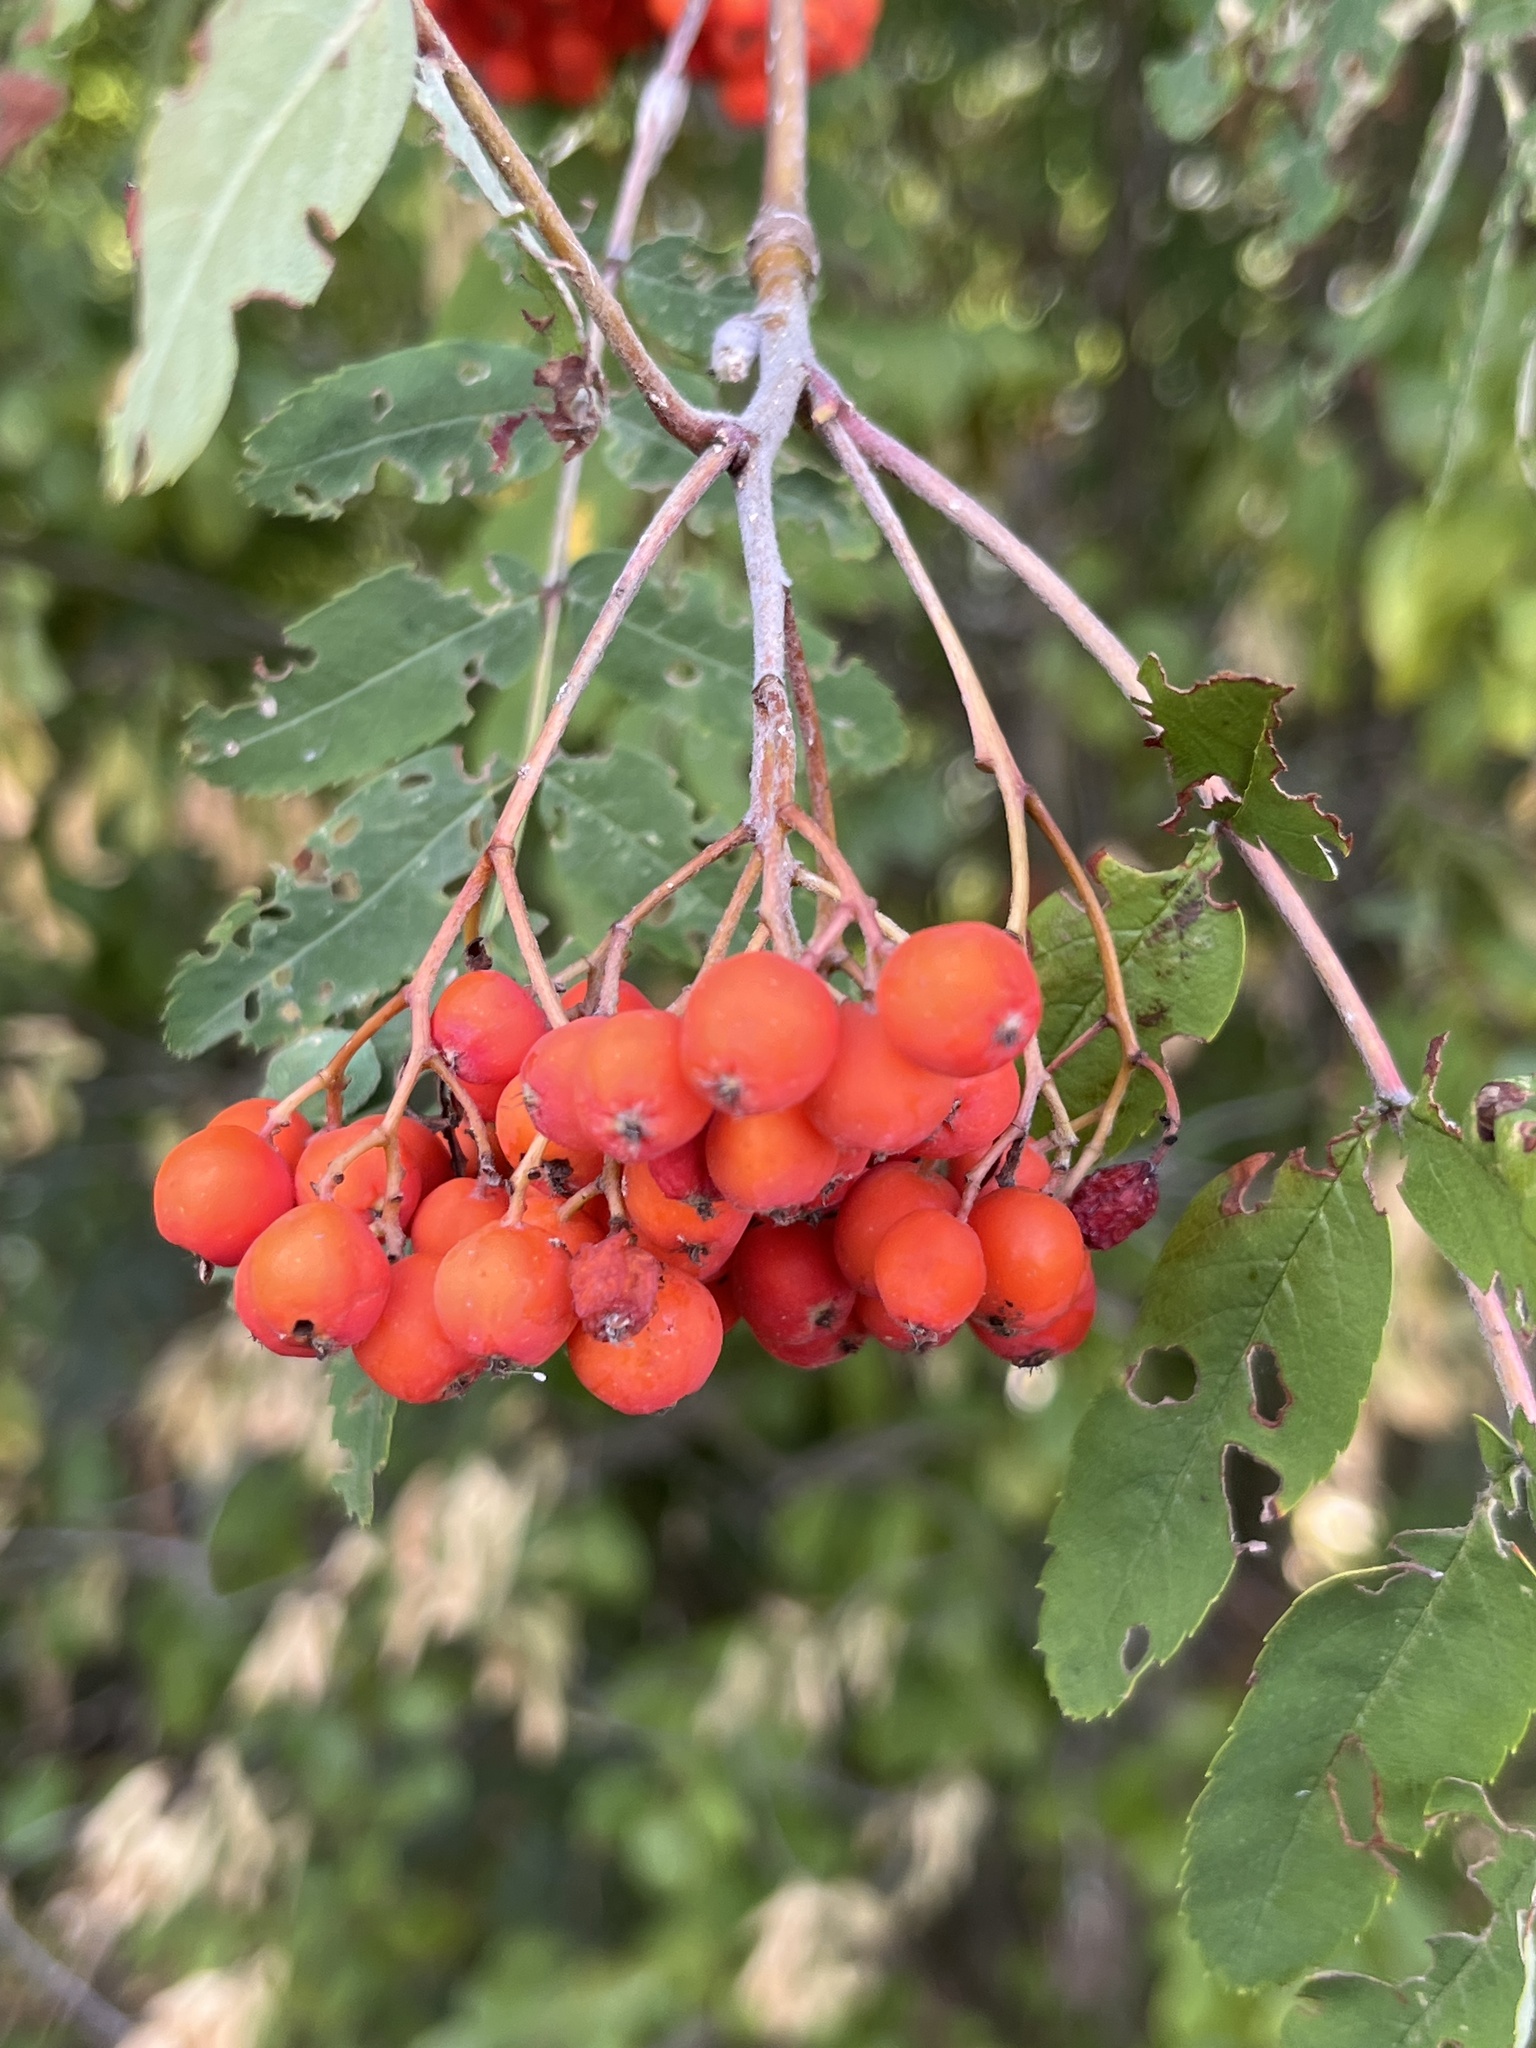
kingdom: Plantae
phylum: Tracheophyta
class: Magnoliopsida
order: Rosales
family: Rosaceae
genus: Sorbus
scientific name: Sorbus aucuparia
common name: Rowan
